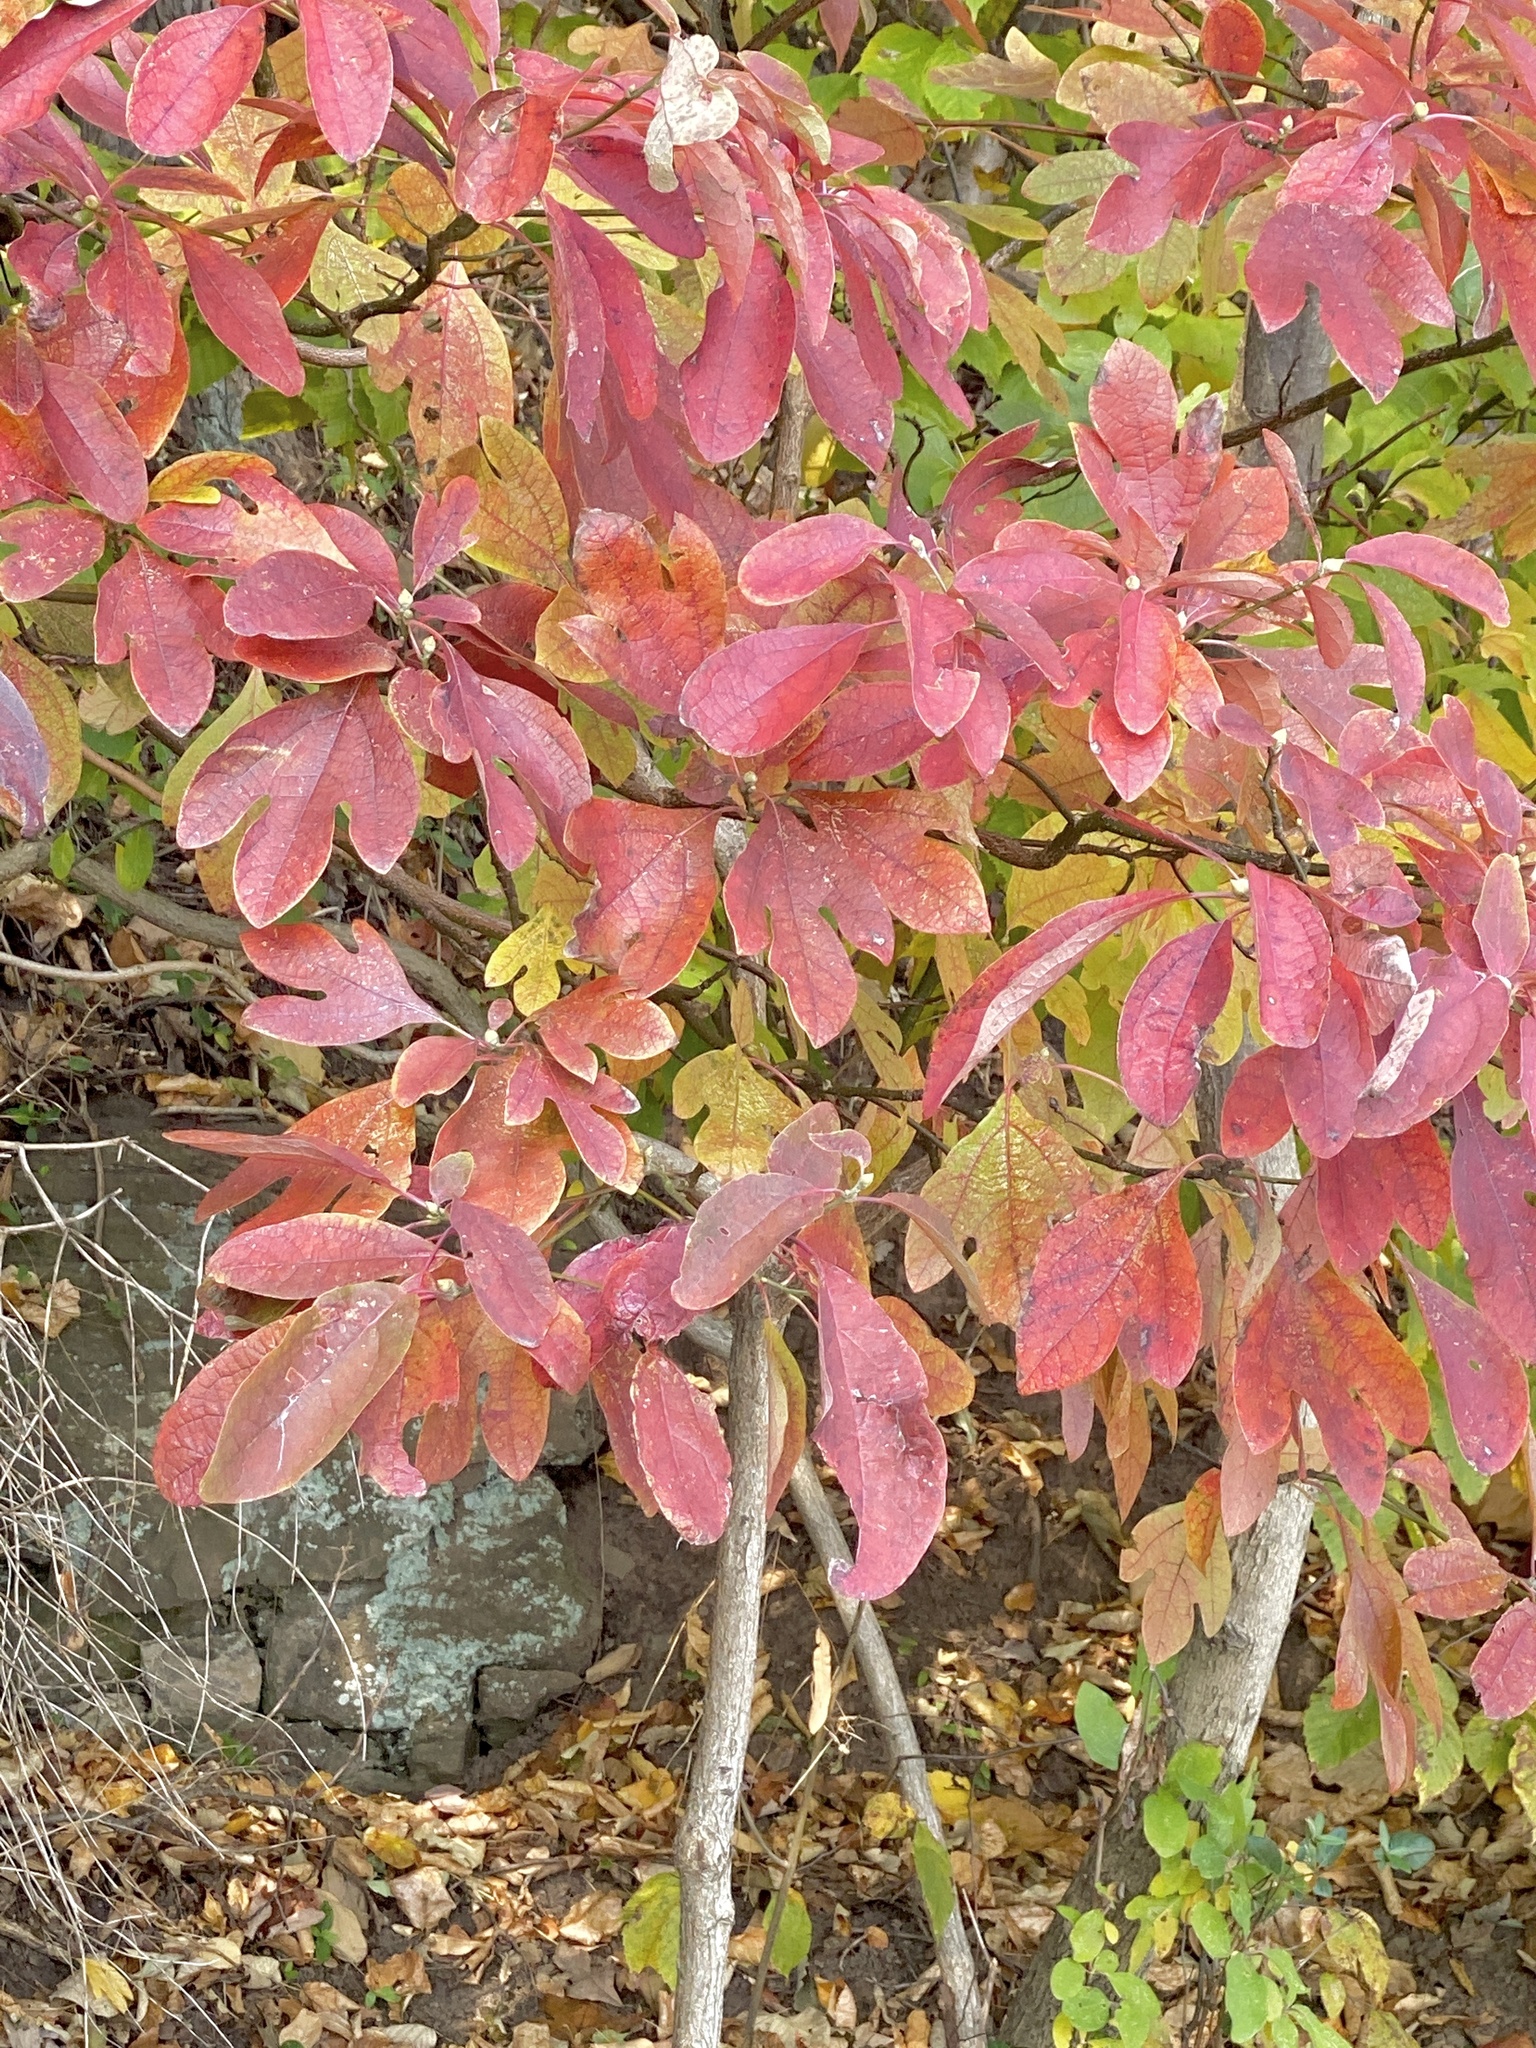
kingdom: Plantae
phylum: Tracheophyta
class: Magnoliopsida
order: Laurales
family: Lauraceae
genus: Sassafras
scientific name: Sassafras albidum
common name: Sassafras
